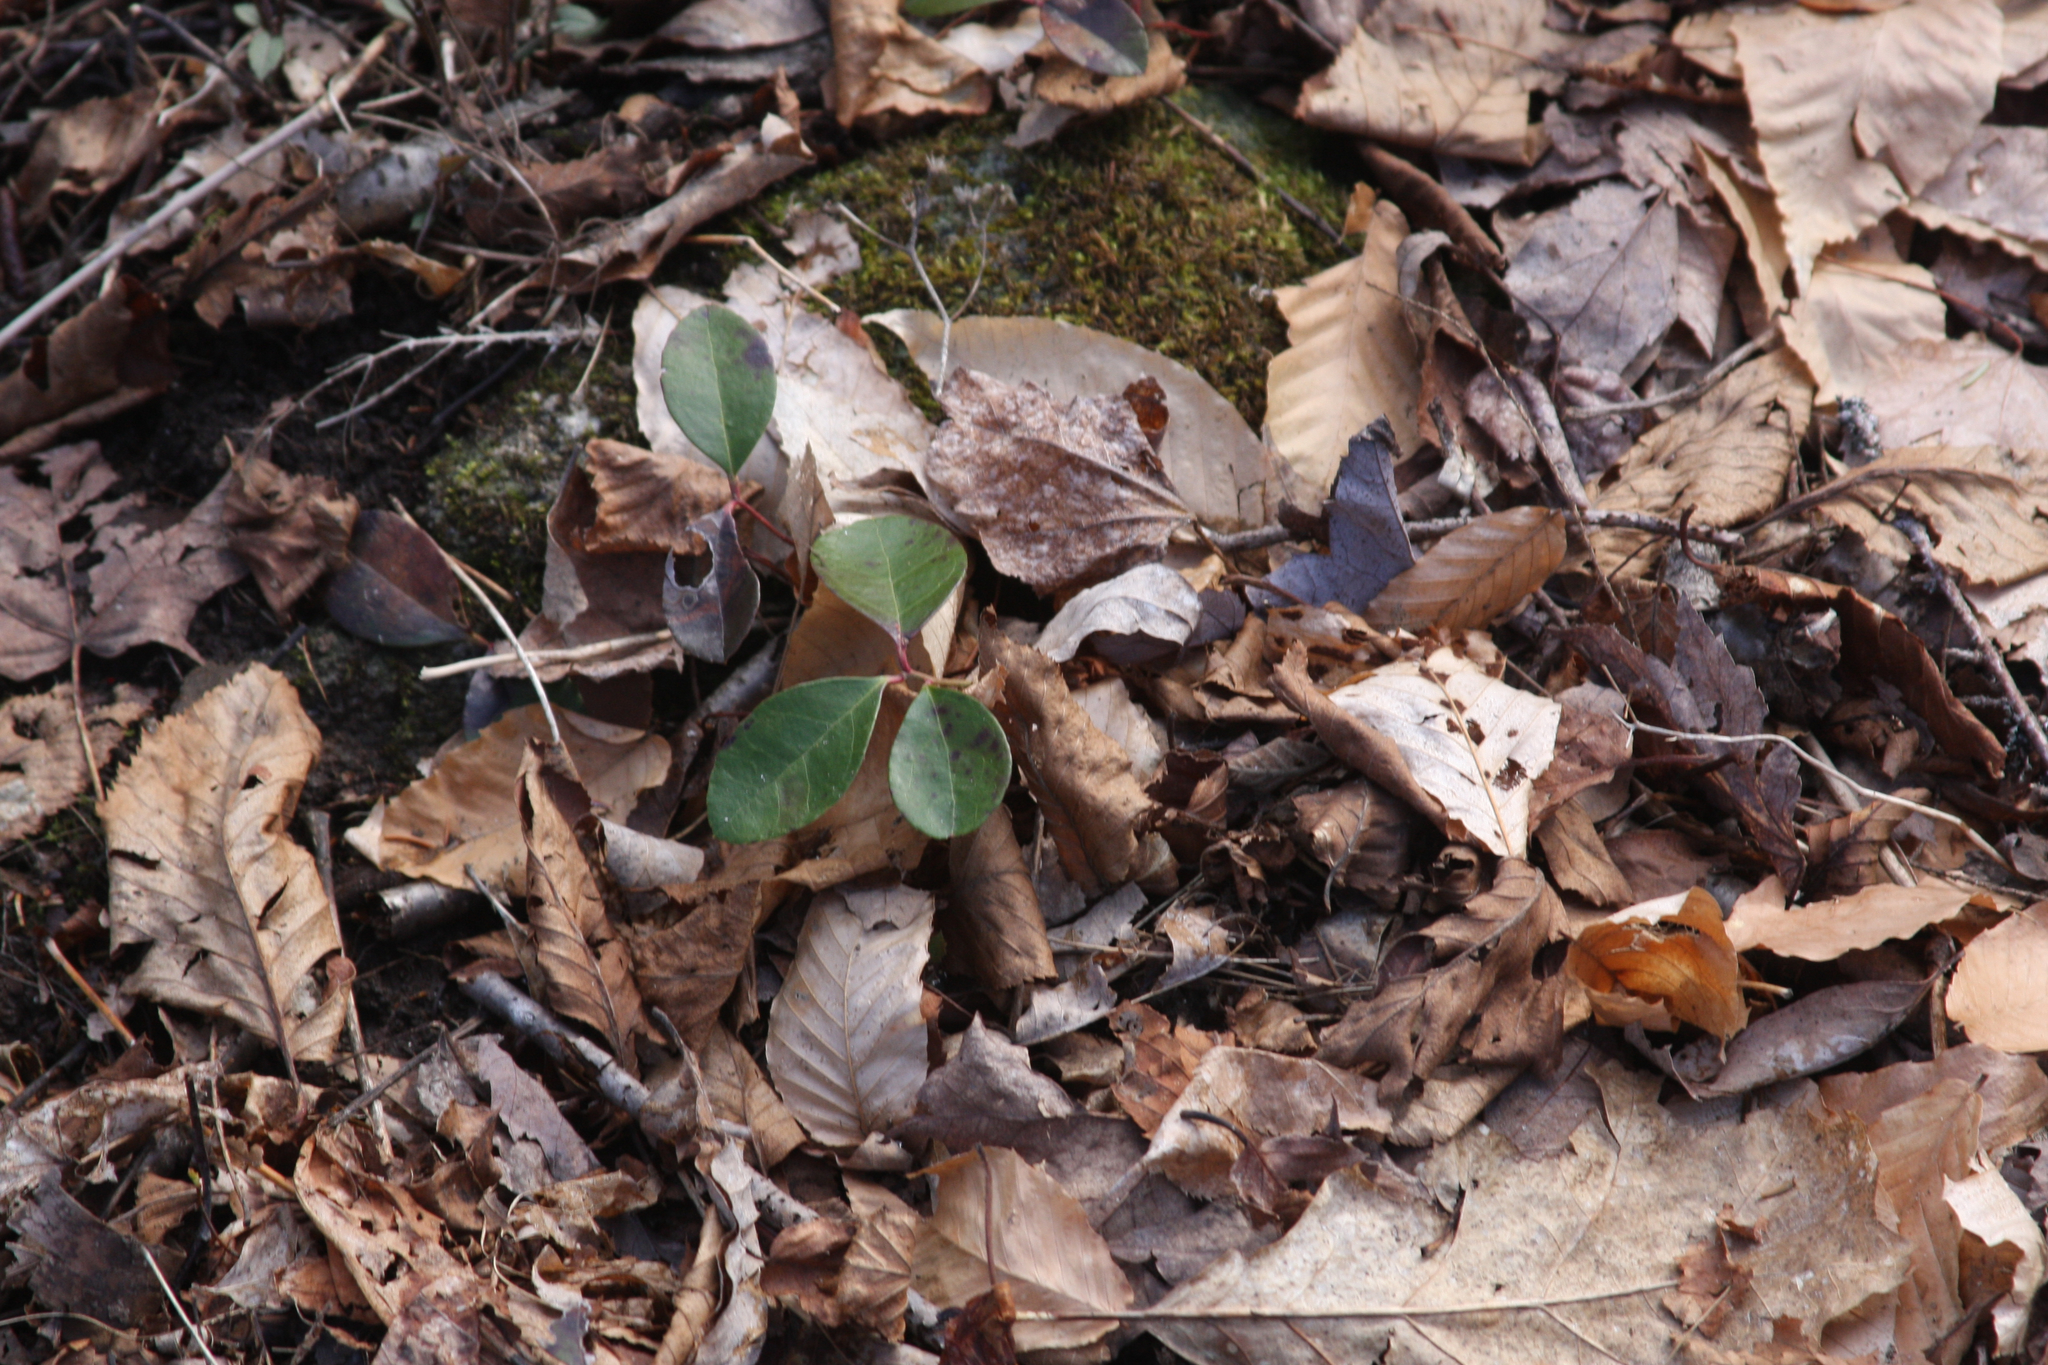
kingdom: Plantae
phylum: Tracheophyta
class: Magnoliopsida
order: Ericales
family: Ericaceae
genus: Gaultheria
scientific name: Gaultheria procumbens
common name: Checkerberry
